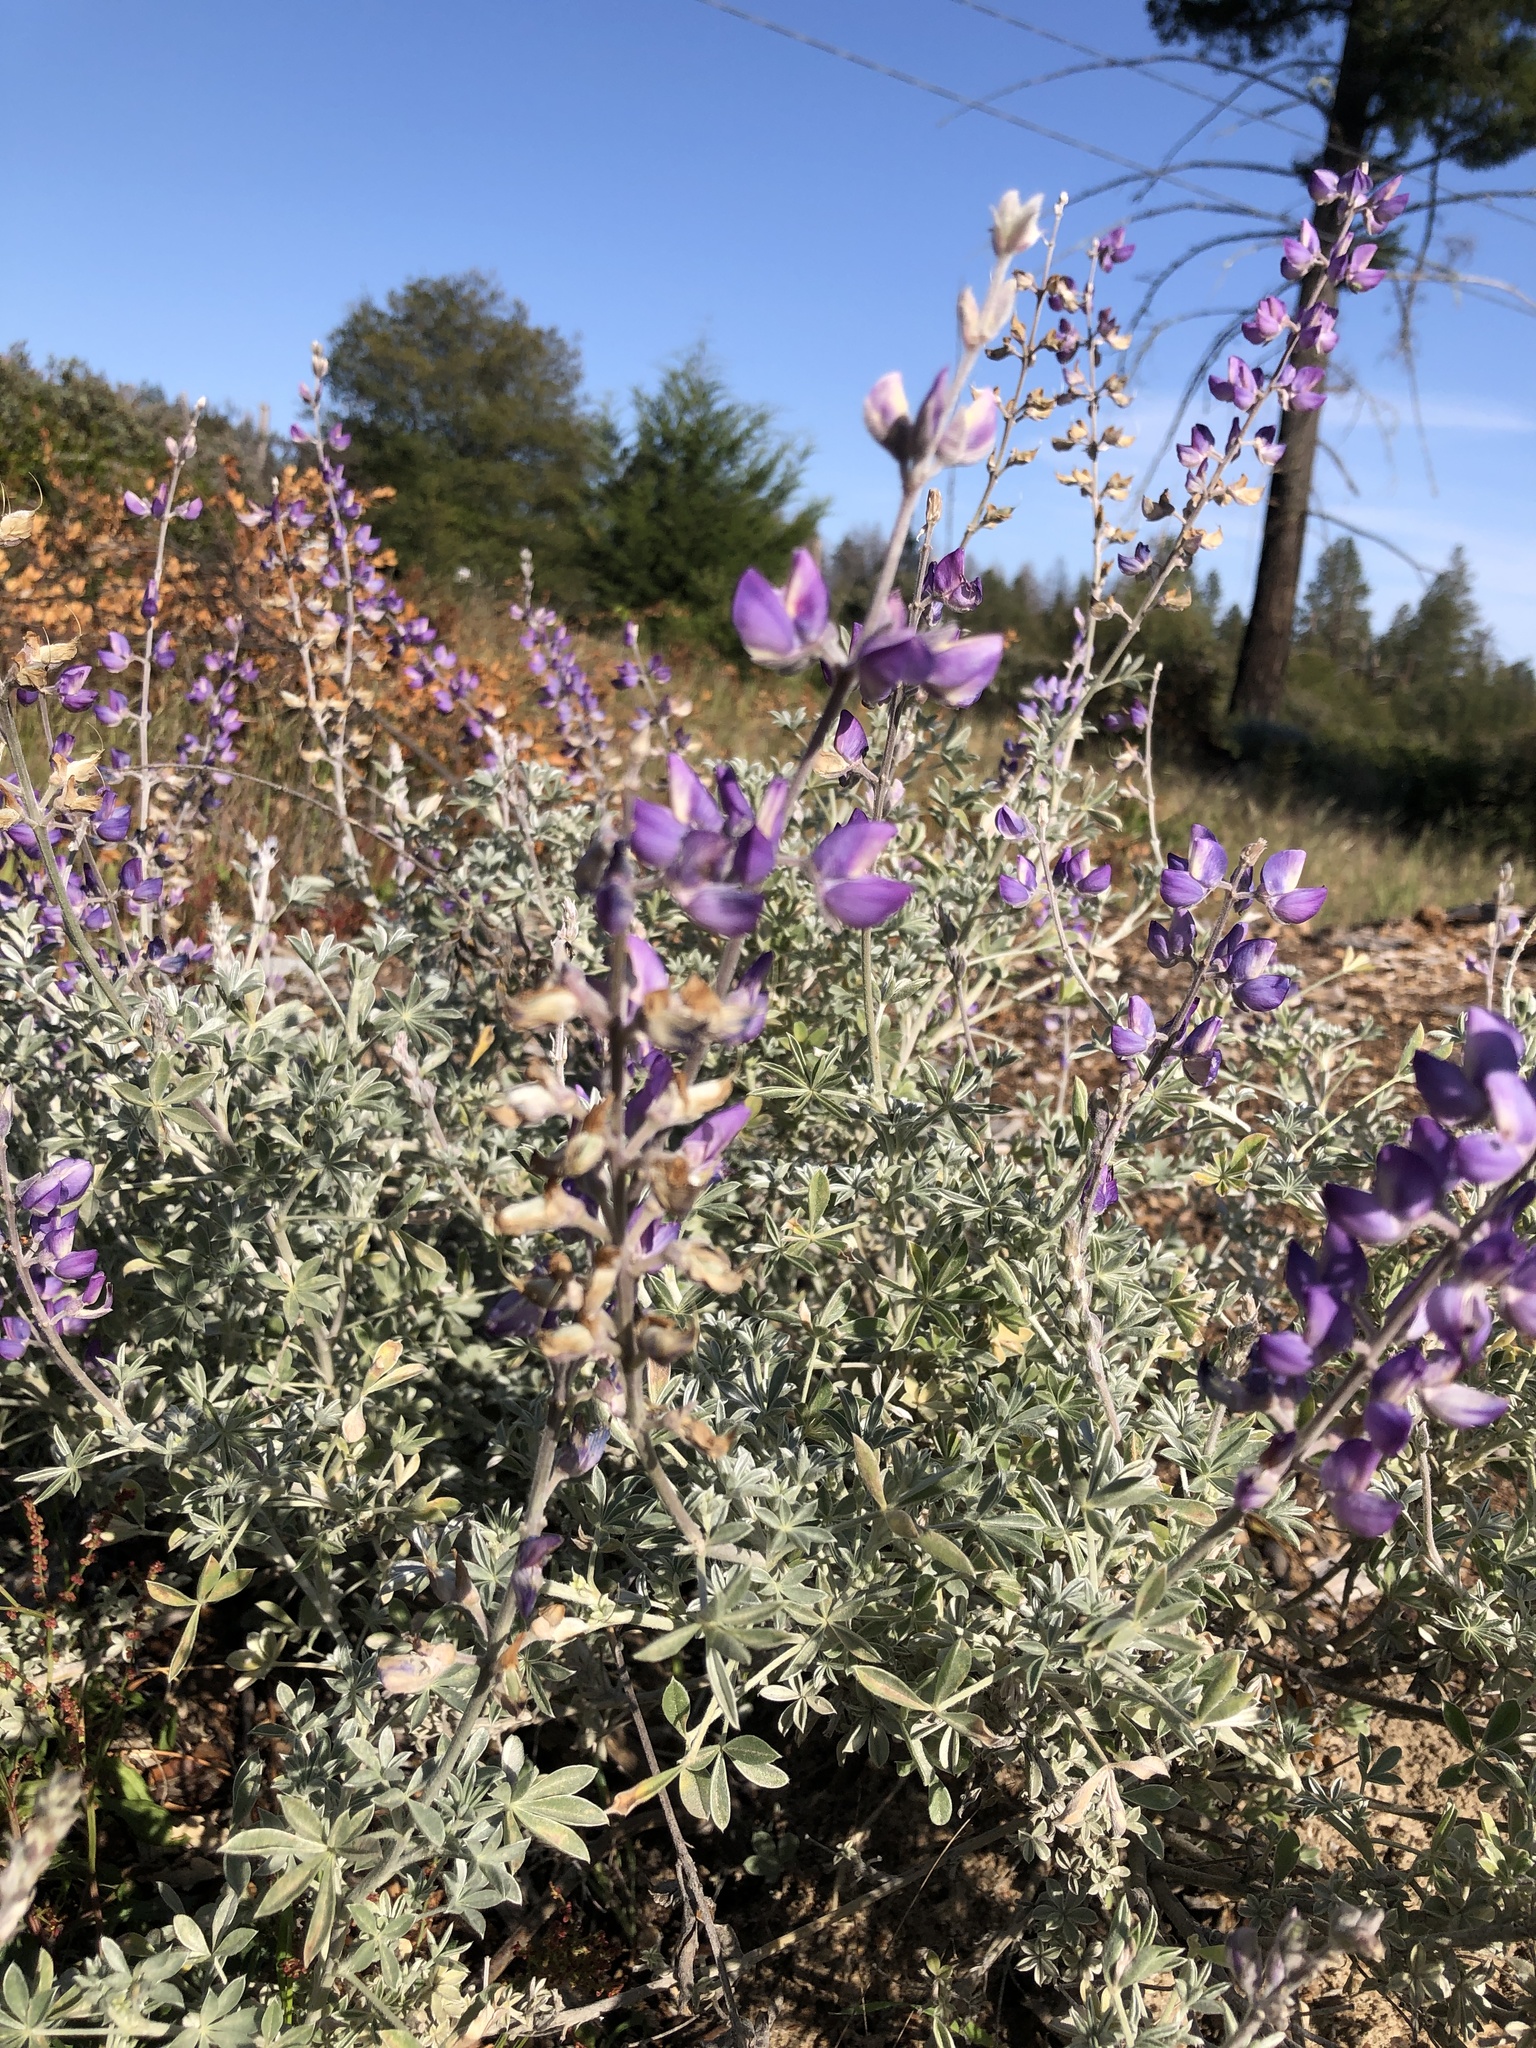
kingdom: Plantae
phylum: Tracheophyta
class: Magnoliopsida
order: Fabales
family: Fabaceae
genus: Lupinus
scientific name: Lupinus albifrons
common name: Foothill lupine
